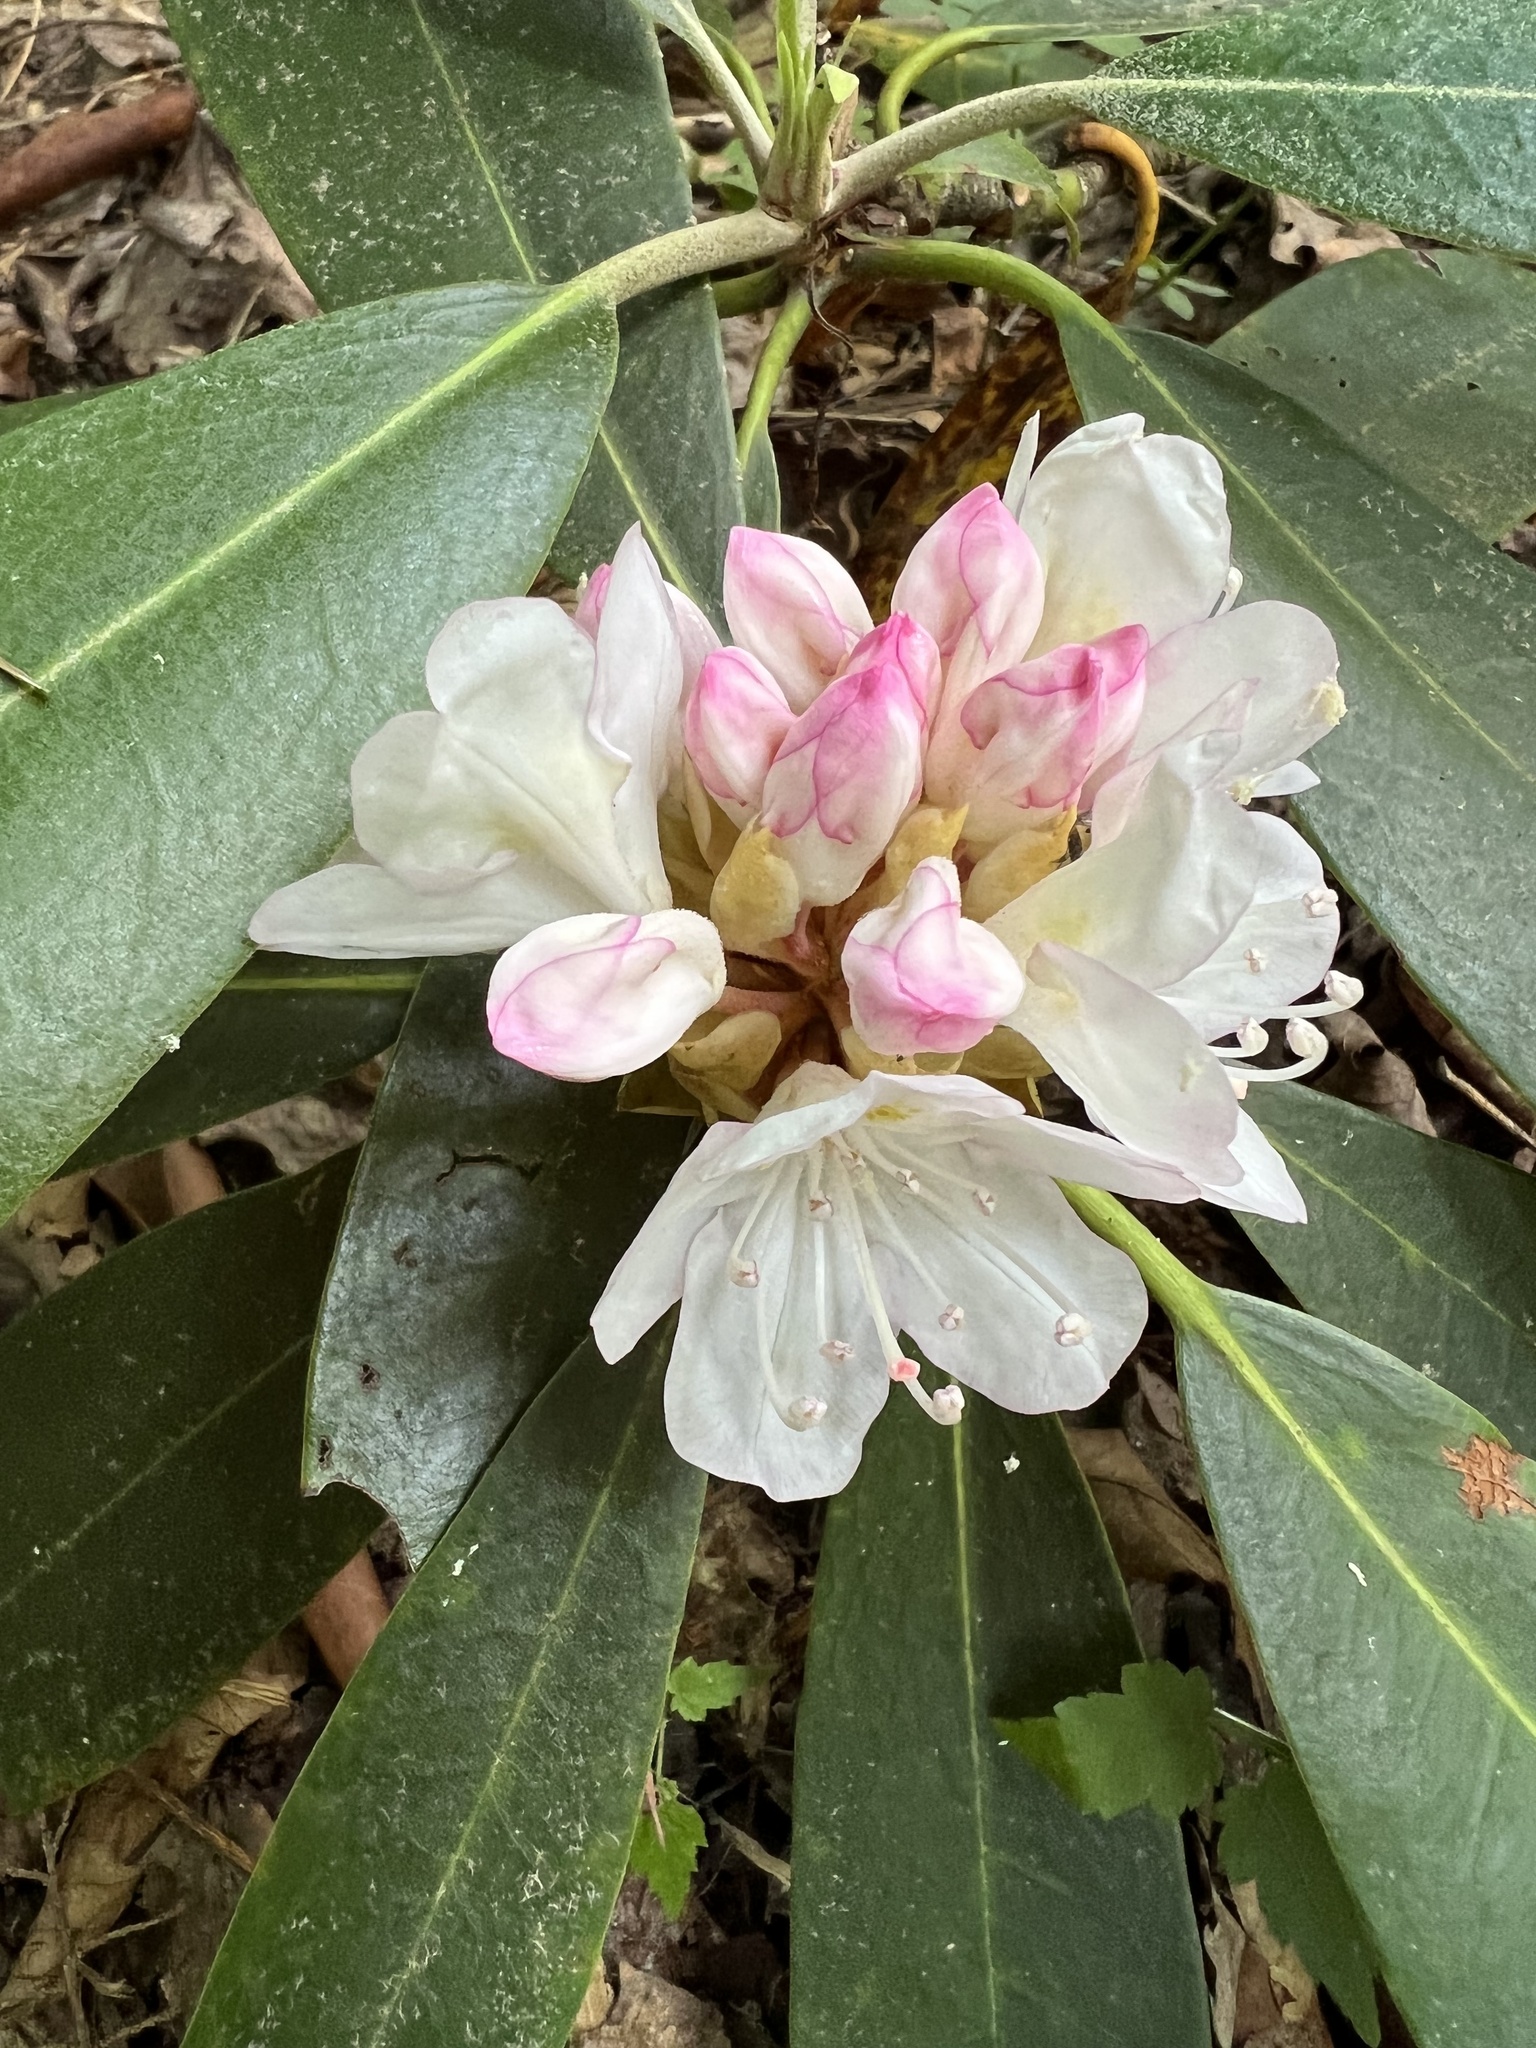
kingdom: Plantae
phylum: Tracheophyta
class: Magnoliopsida
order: Ericales
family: Ericaceae
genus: Rhododendron
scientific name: Rhododendron maximum
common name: Great rhododendron
